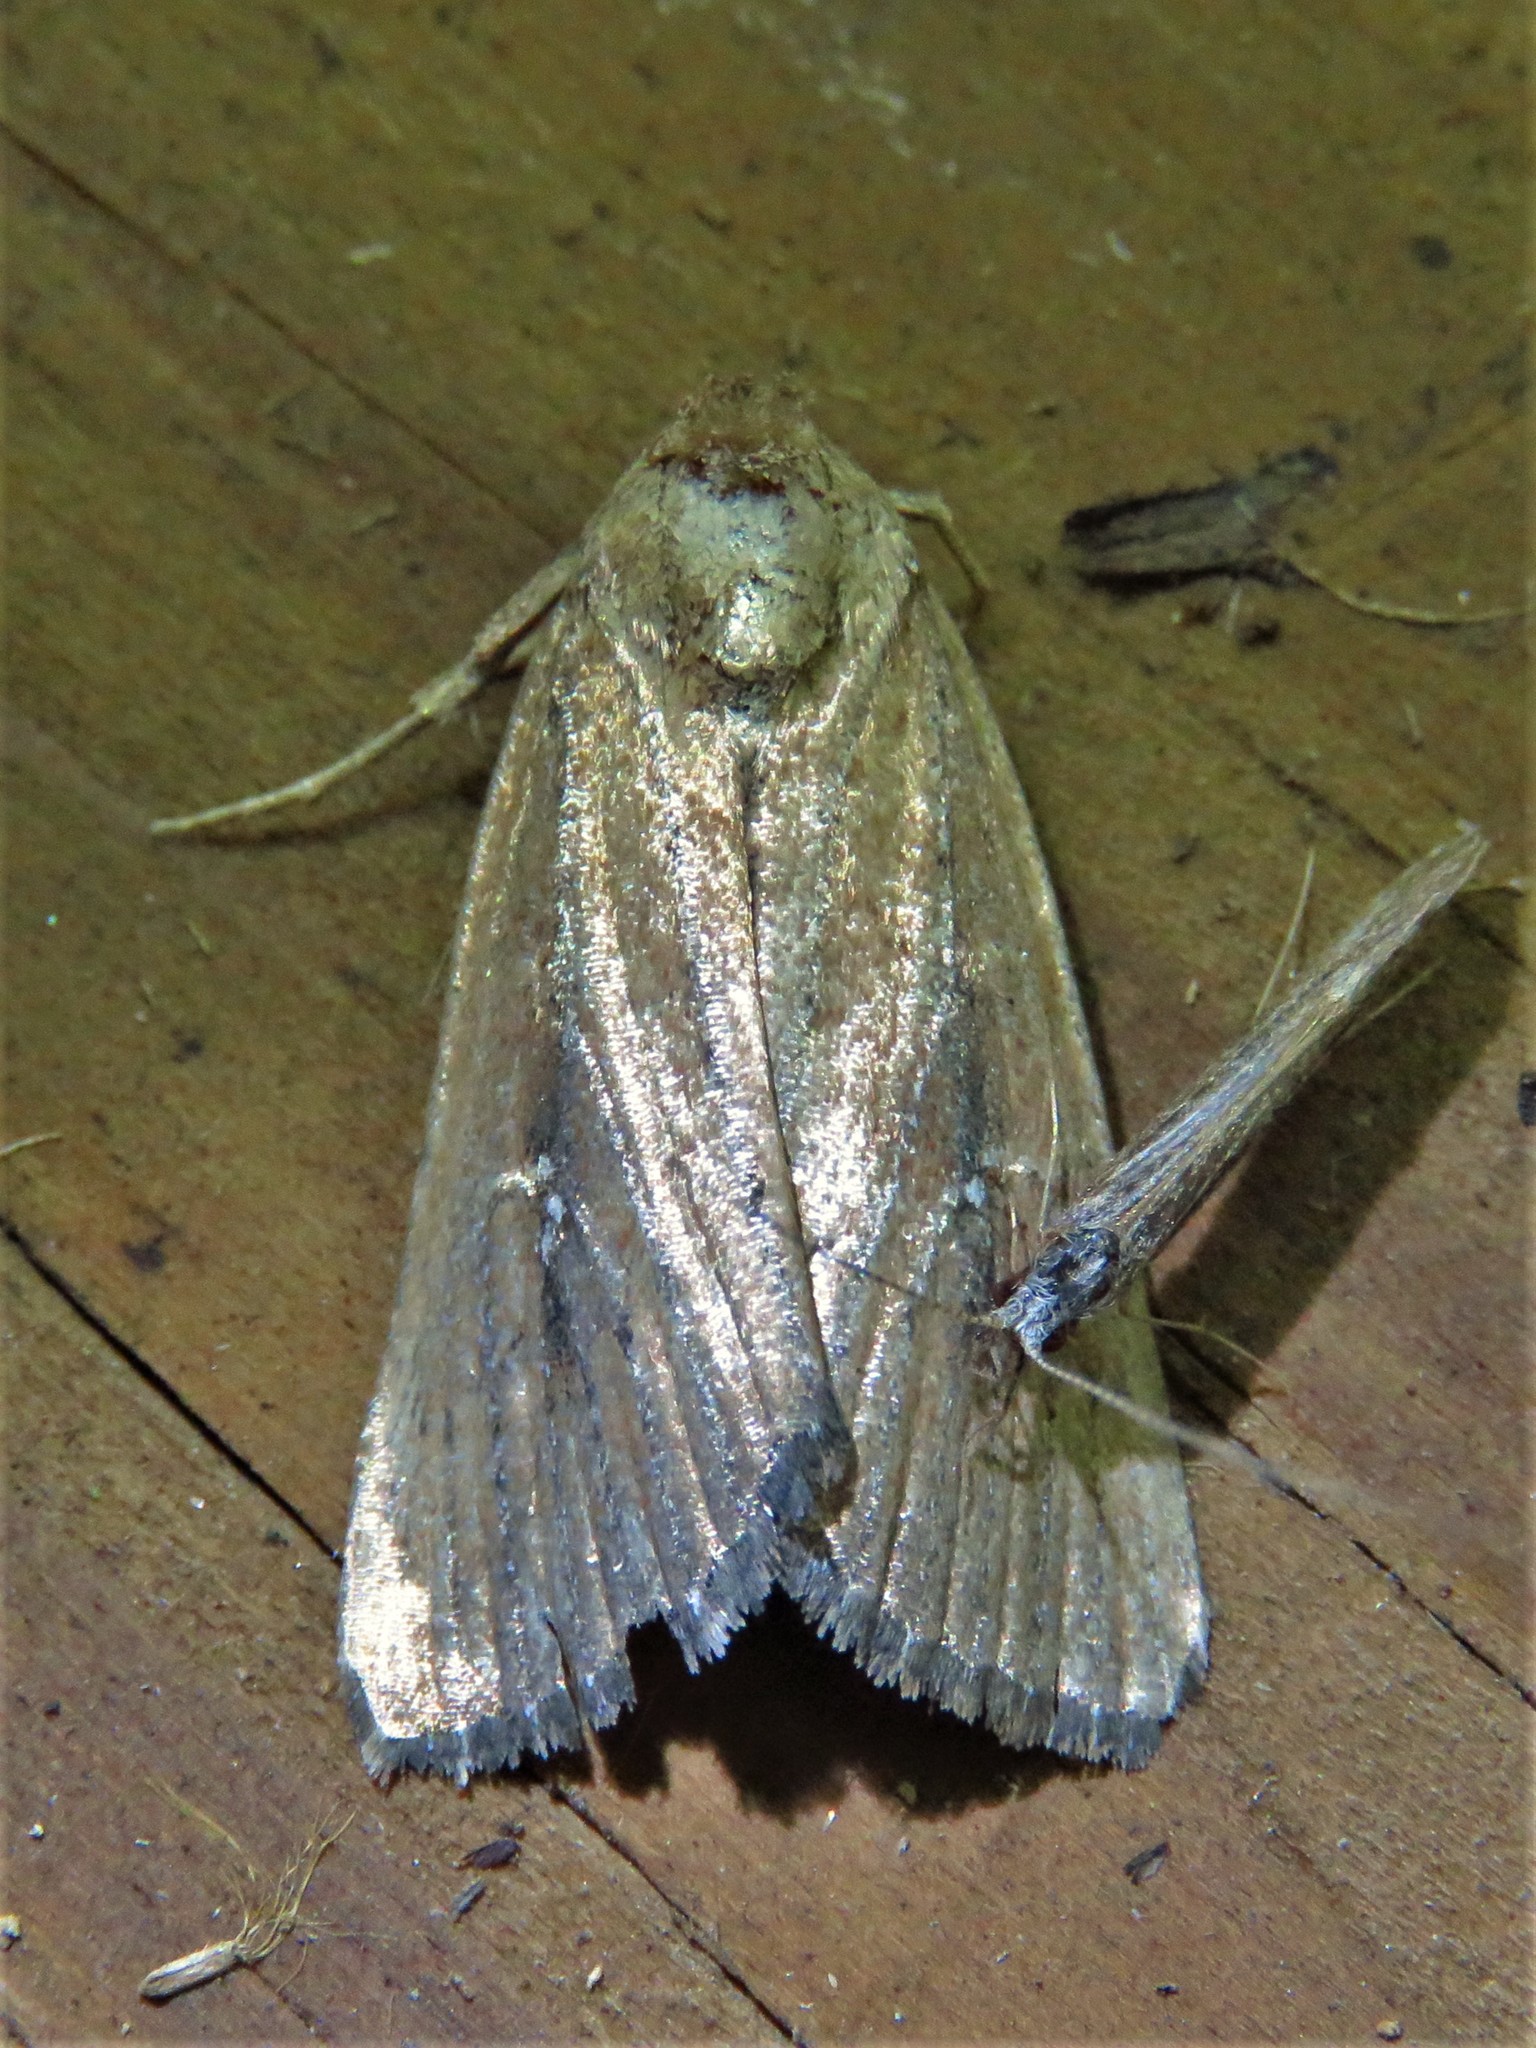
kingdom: Animalia
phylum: Arthropoda
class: Insecta
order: Lepidoptera
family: Noctuidae
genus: Condica
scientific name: Condica videns
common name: White-dotted groundling
